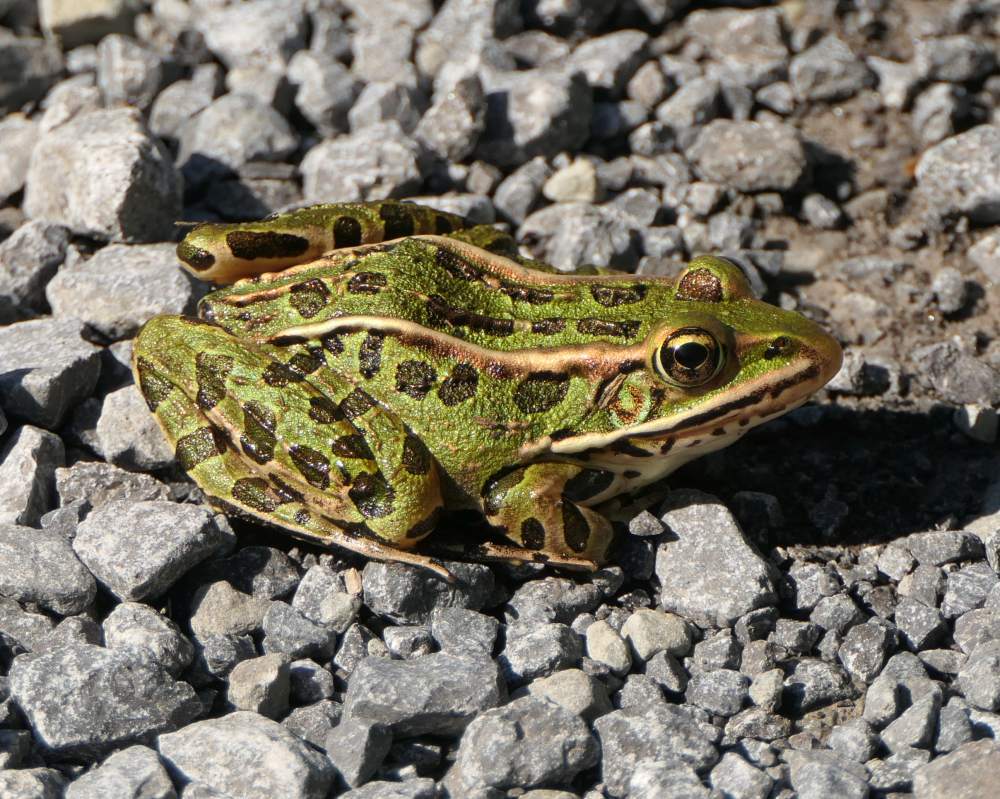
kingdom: Animalia
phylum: Chordata
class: Amphibia
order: Anura
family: Ranidae
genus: Lithobates
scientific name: Lithobates pipiens
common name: Northern leopard frog
